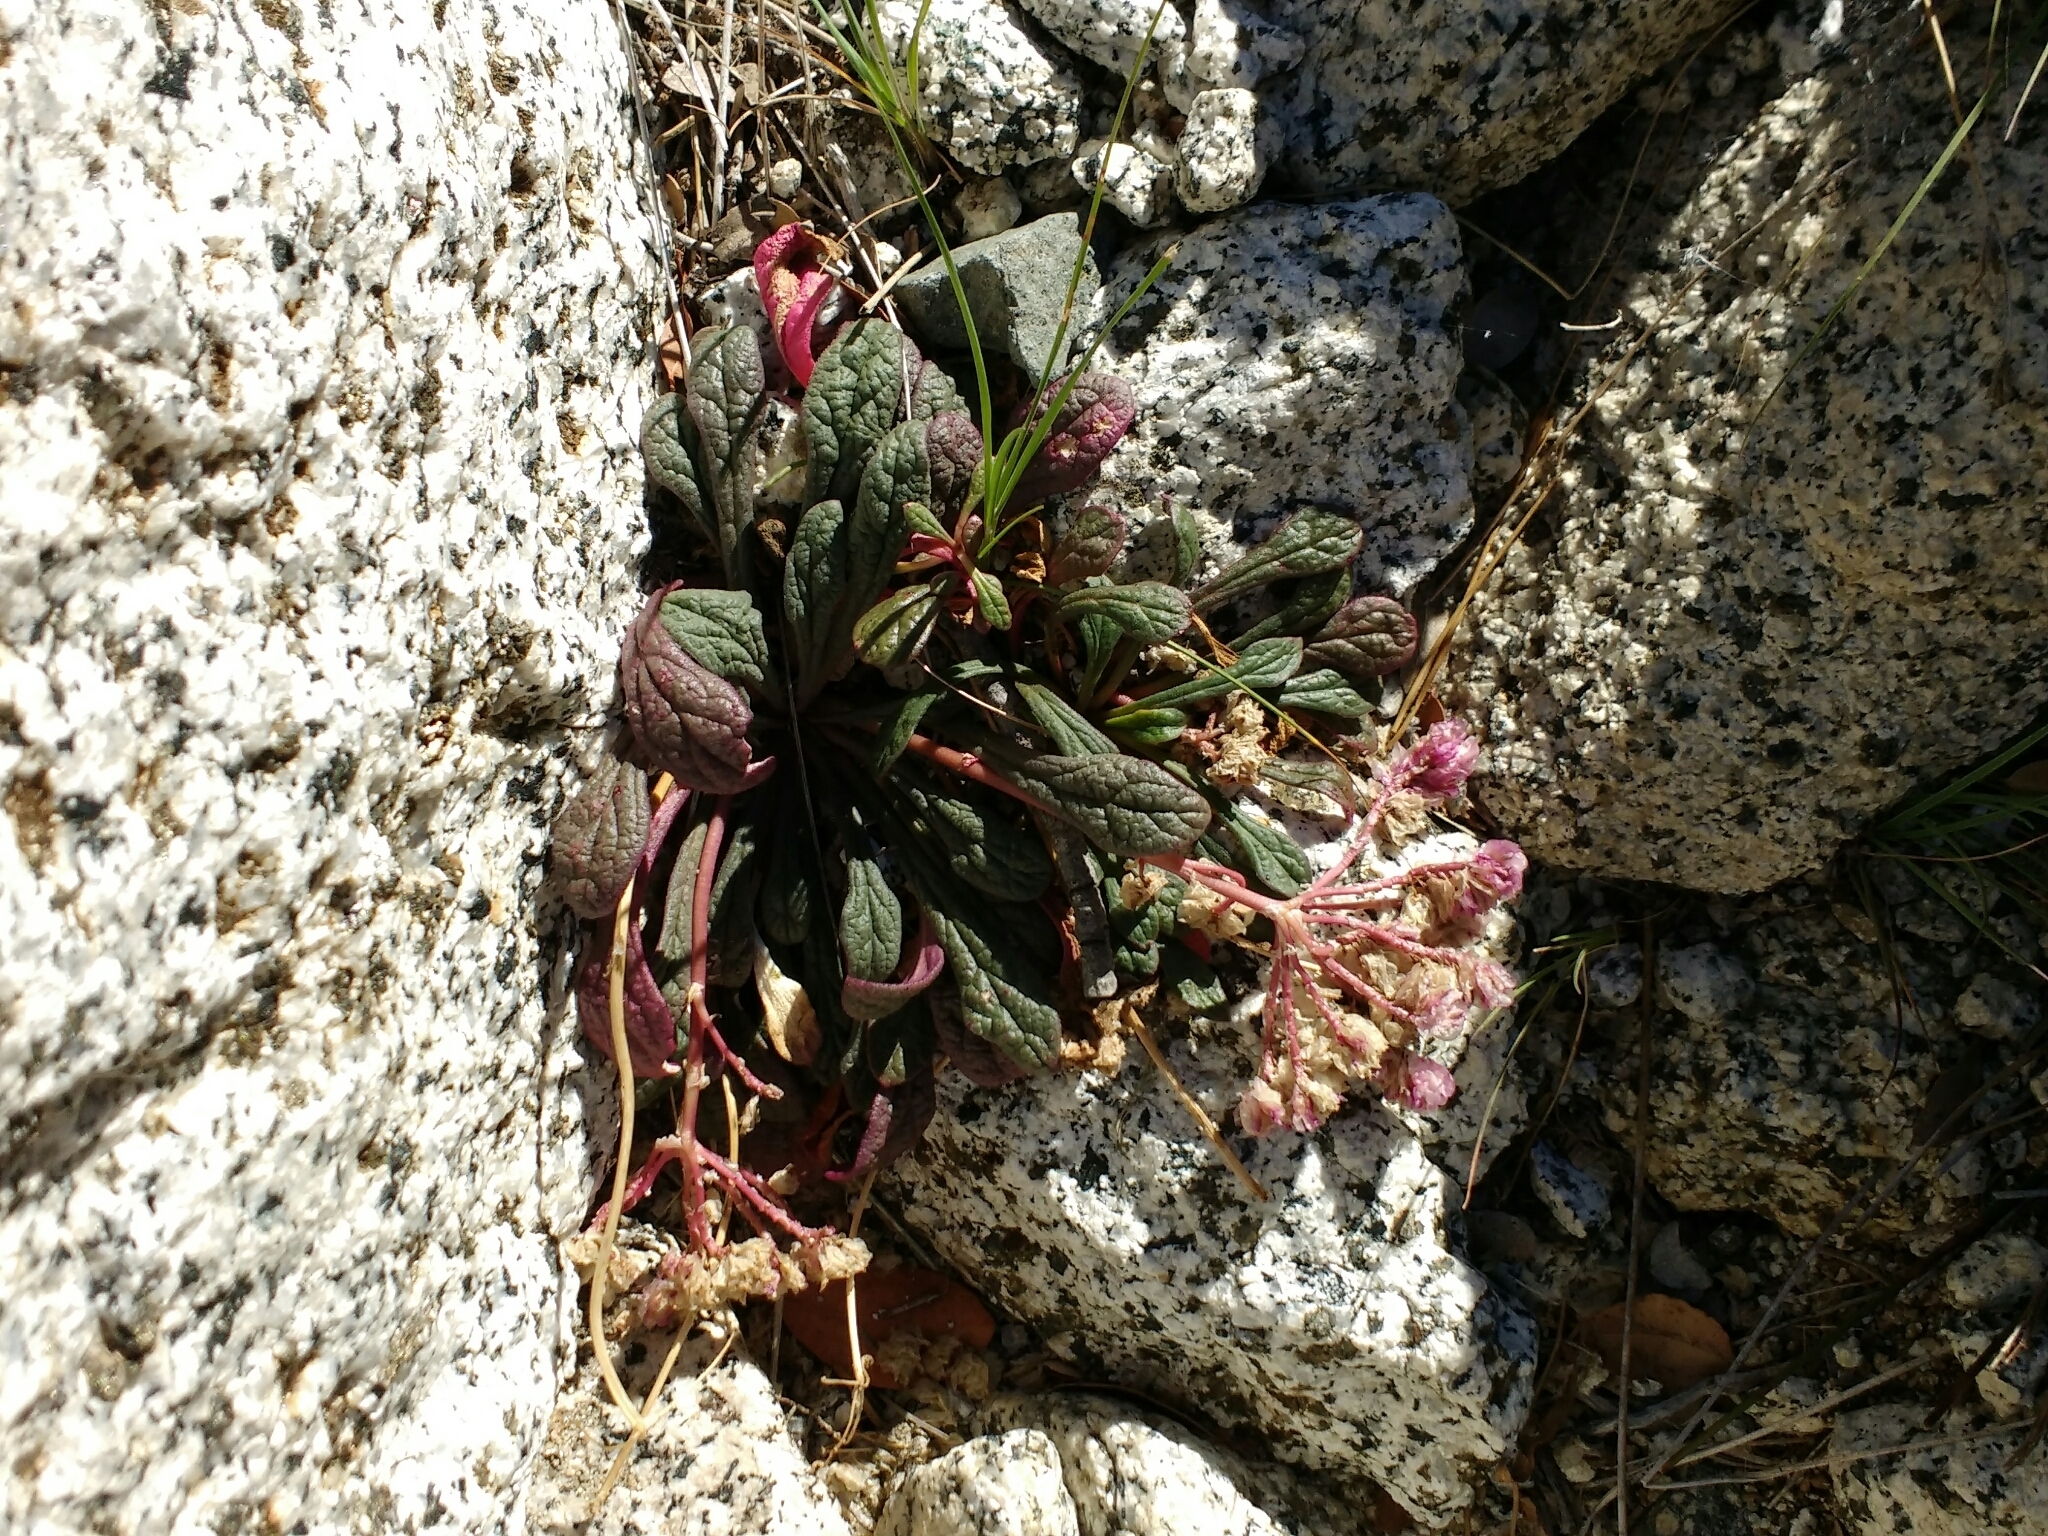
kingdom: Plantae
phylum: Tracheophyta
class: Magnoliopsida
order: Caryophyllales
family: Montiaceae
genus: Calyptridium
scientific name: Calyptridium monospermum
